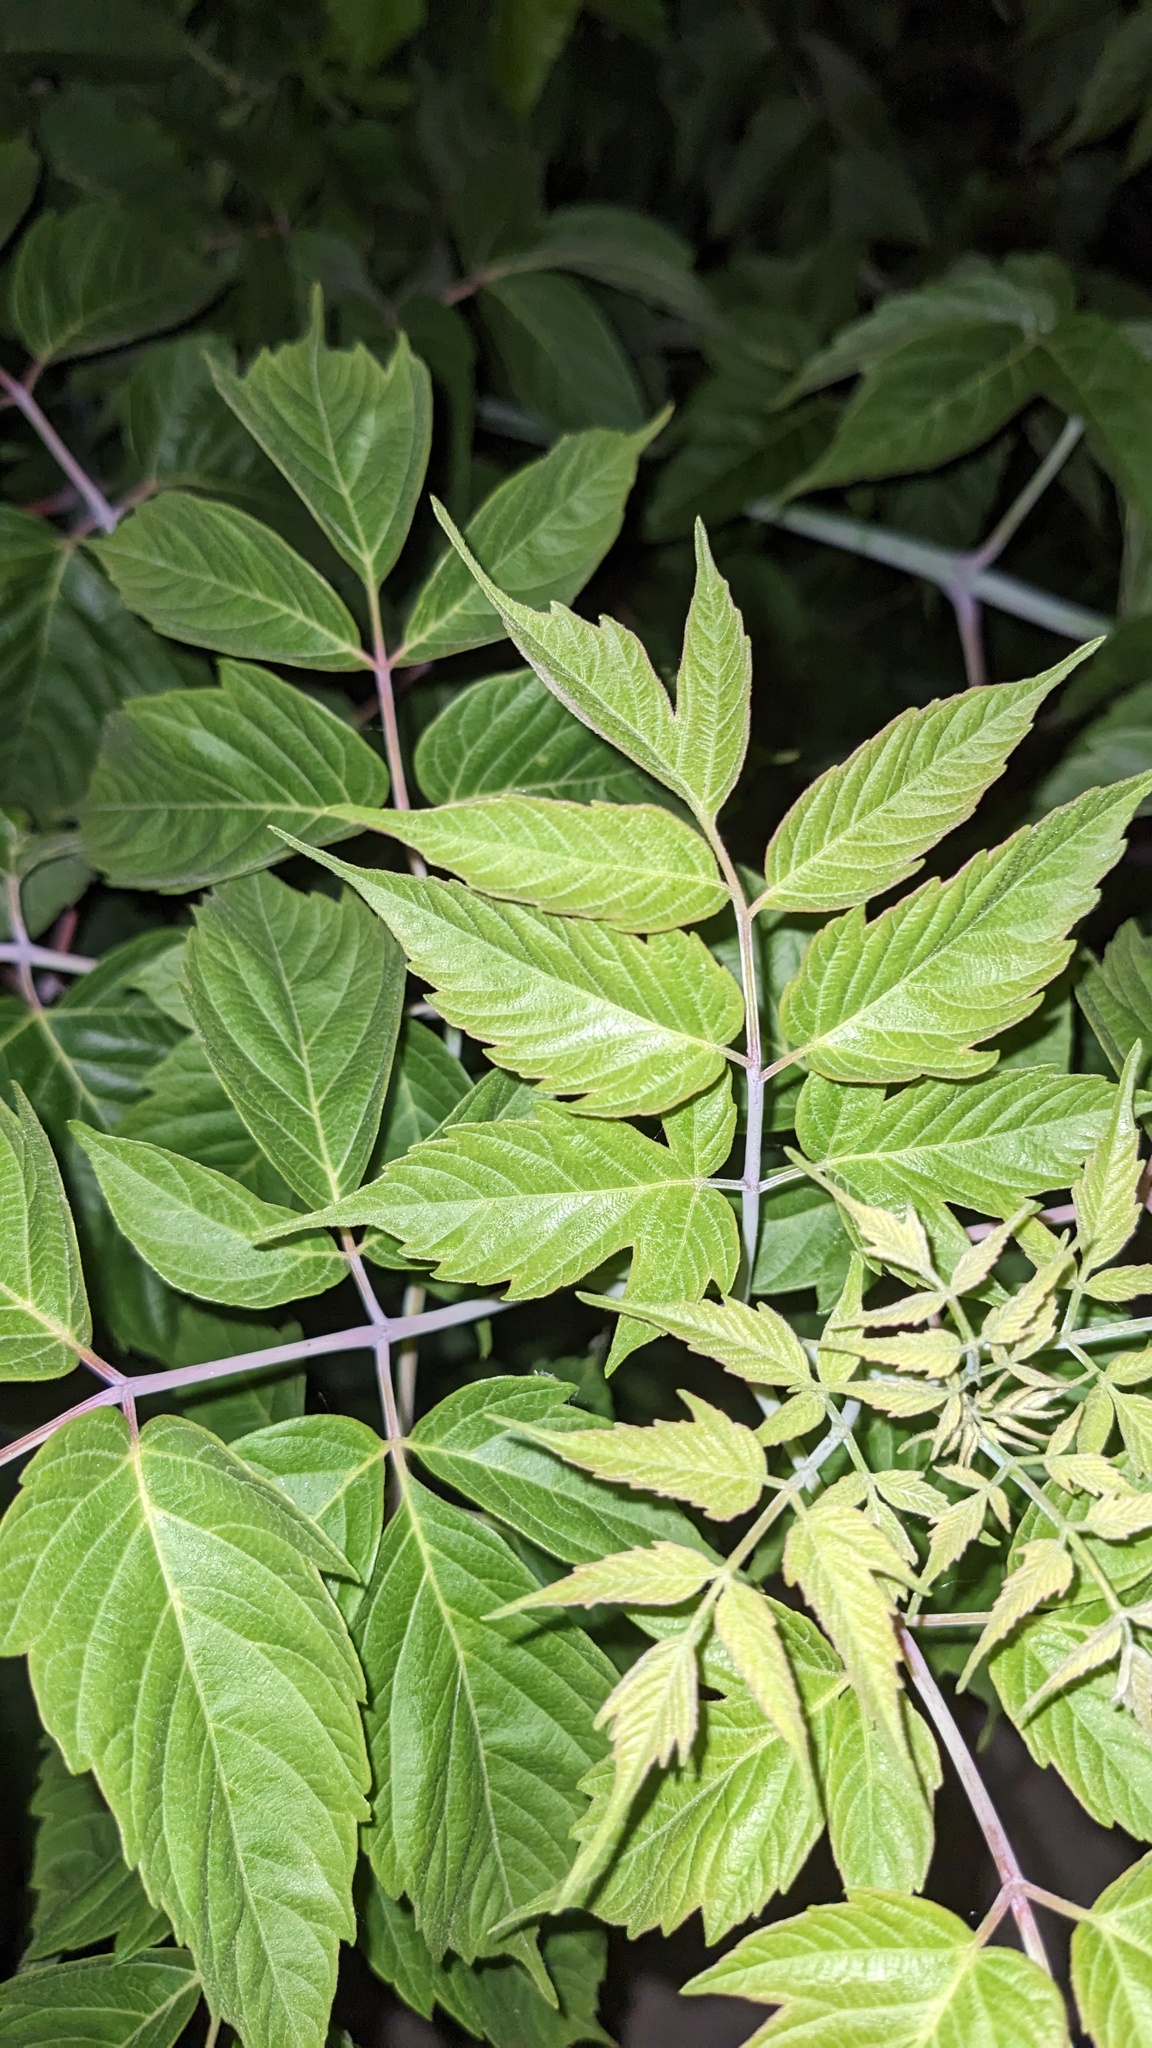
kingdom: Plantae
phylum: Tracheophyta
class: Magnoliopsida
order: Sapindales
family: Sapindaceae
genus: Acer
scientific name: Acer negundo
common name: Ashleaf maple
